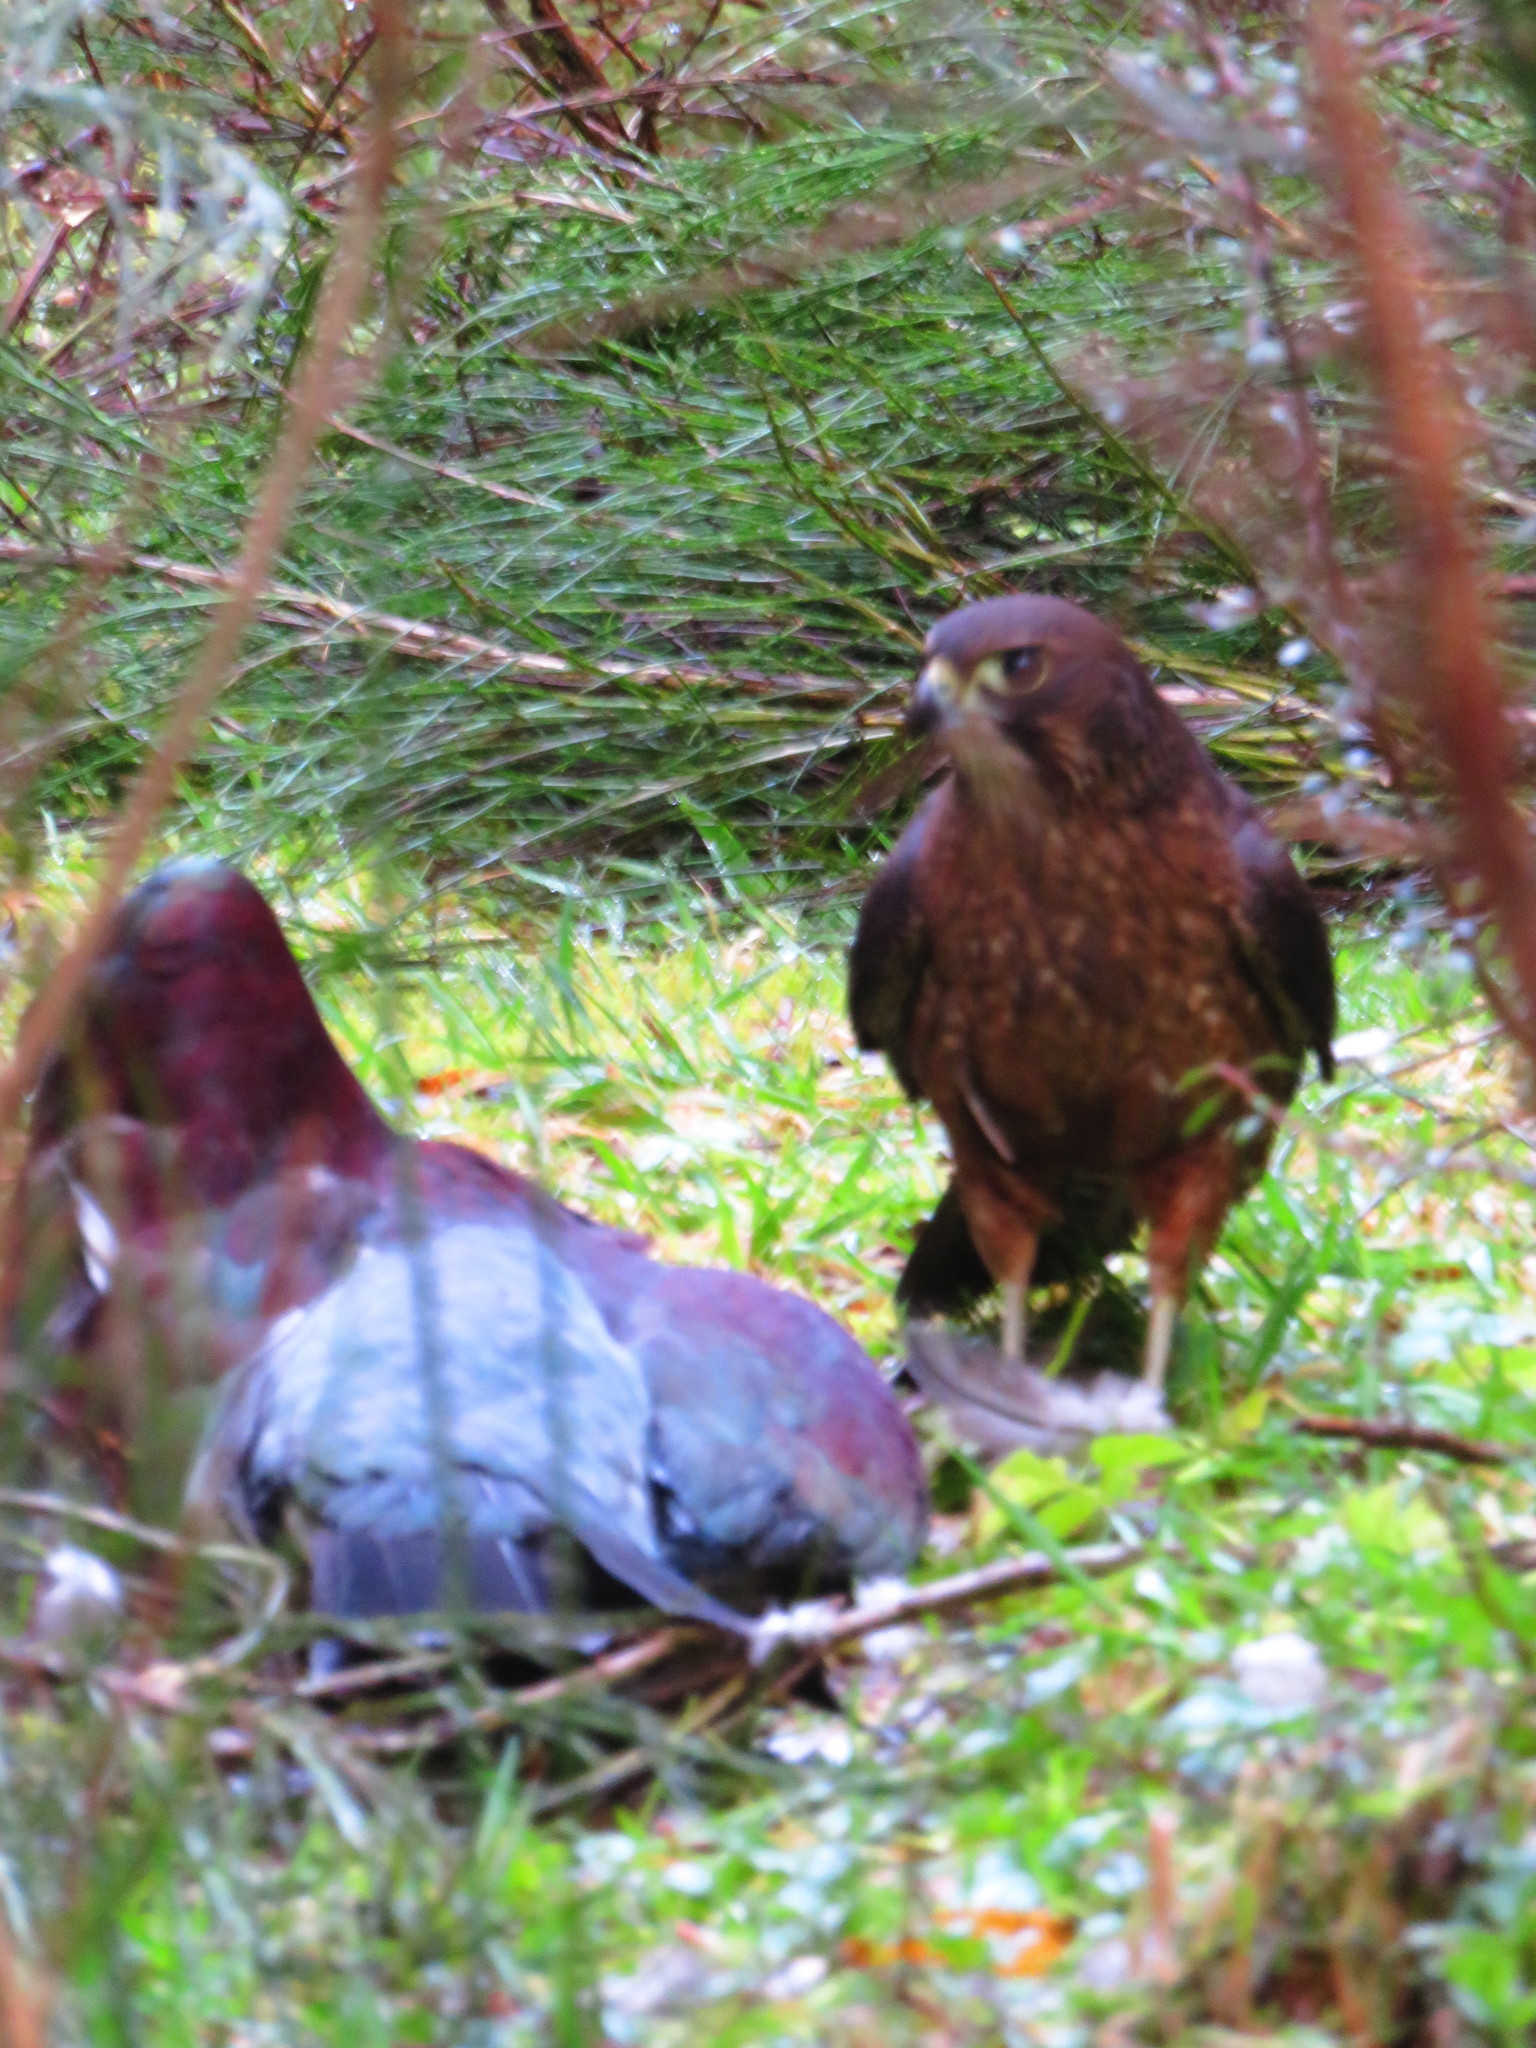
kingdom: Animalia
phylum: Chordata
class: Aves
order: Falconiformes
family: Falconidae
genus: Falco
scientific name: Falco novaeseelandiae
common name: New zealand falcon
